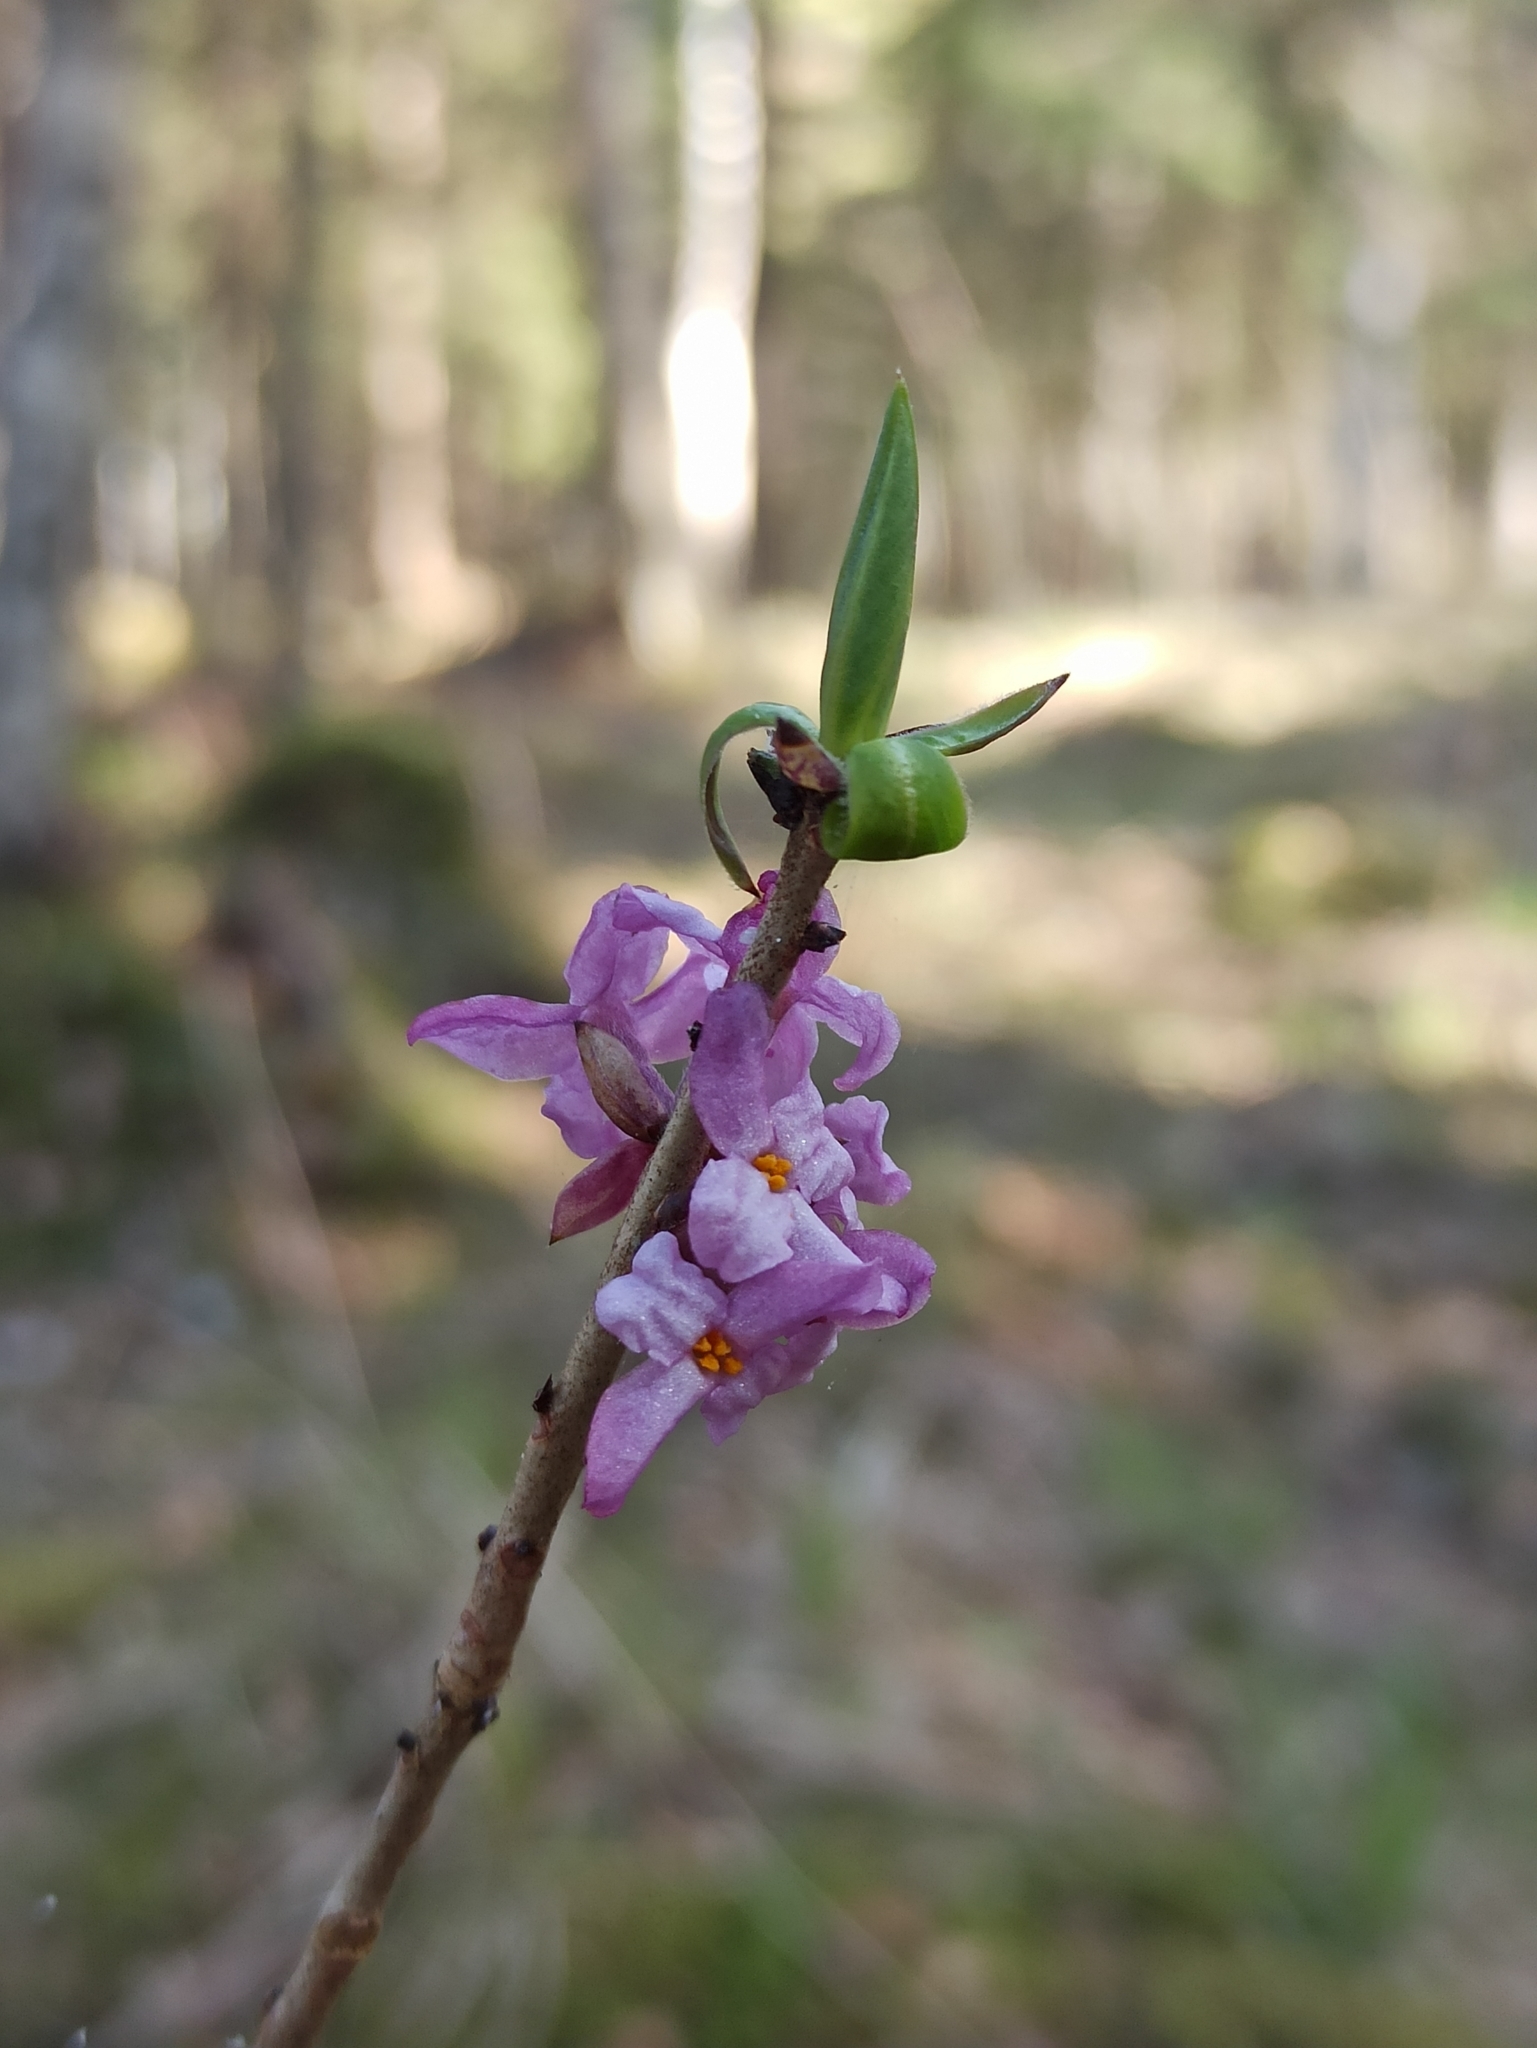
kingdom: Plantae
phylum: Tracheophyta
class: Magnoliopsida
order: Malvales
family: Thymelaeaceae
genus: Daphne
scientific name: Daphne mezereum
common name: Mezereon
